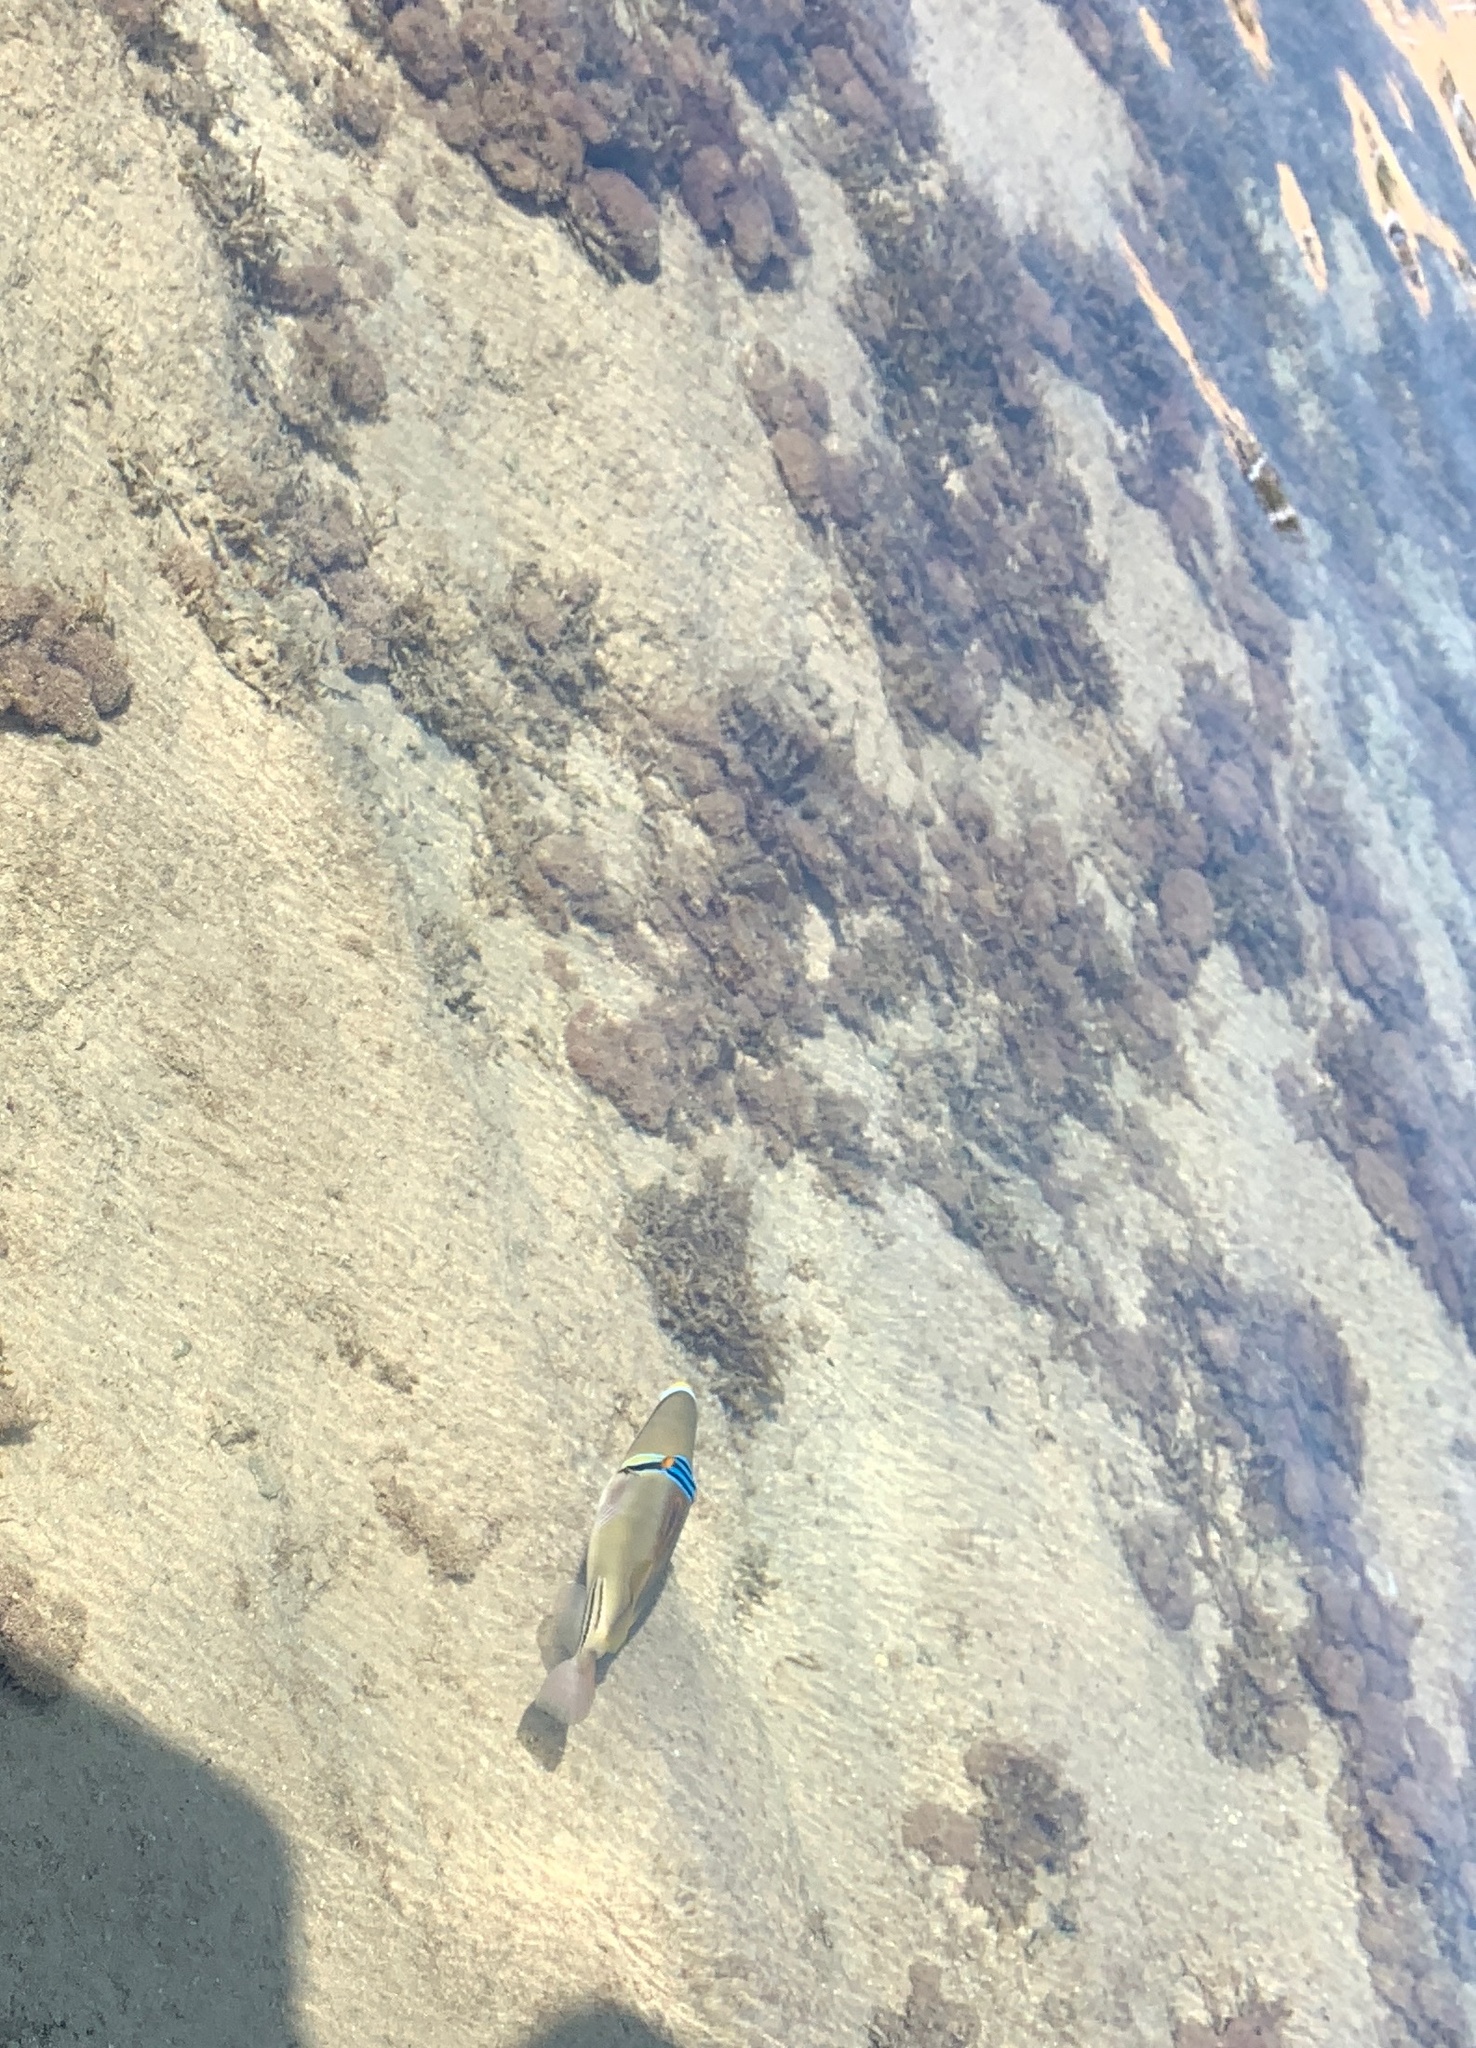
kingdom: Animalia
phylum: Chordata
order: Tetraodontiformes
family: Balistidae
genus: Rhinecanthus
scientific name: Rhinecanthus assasi
